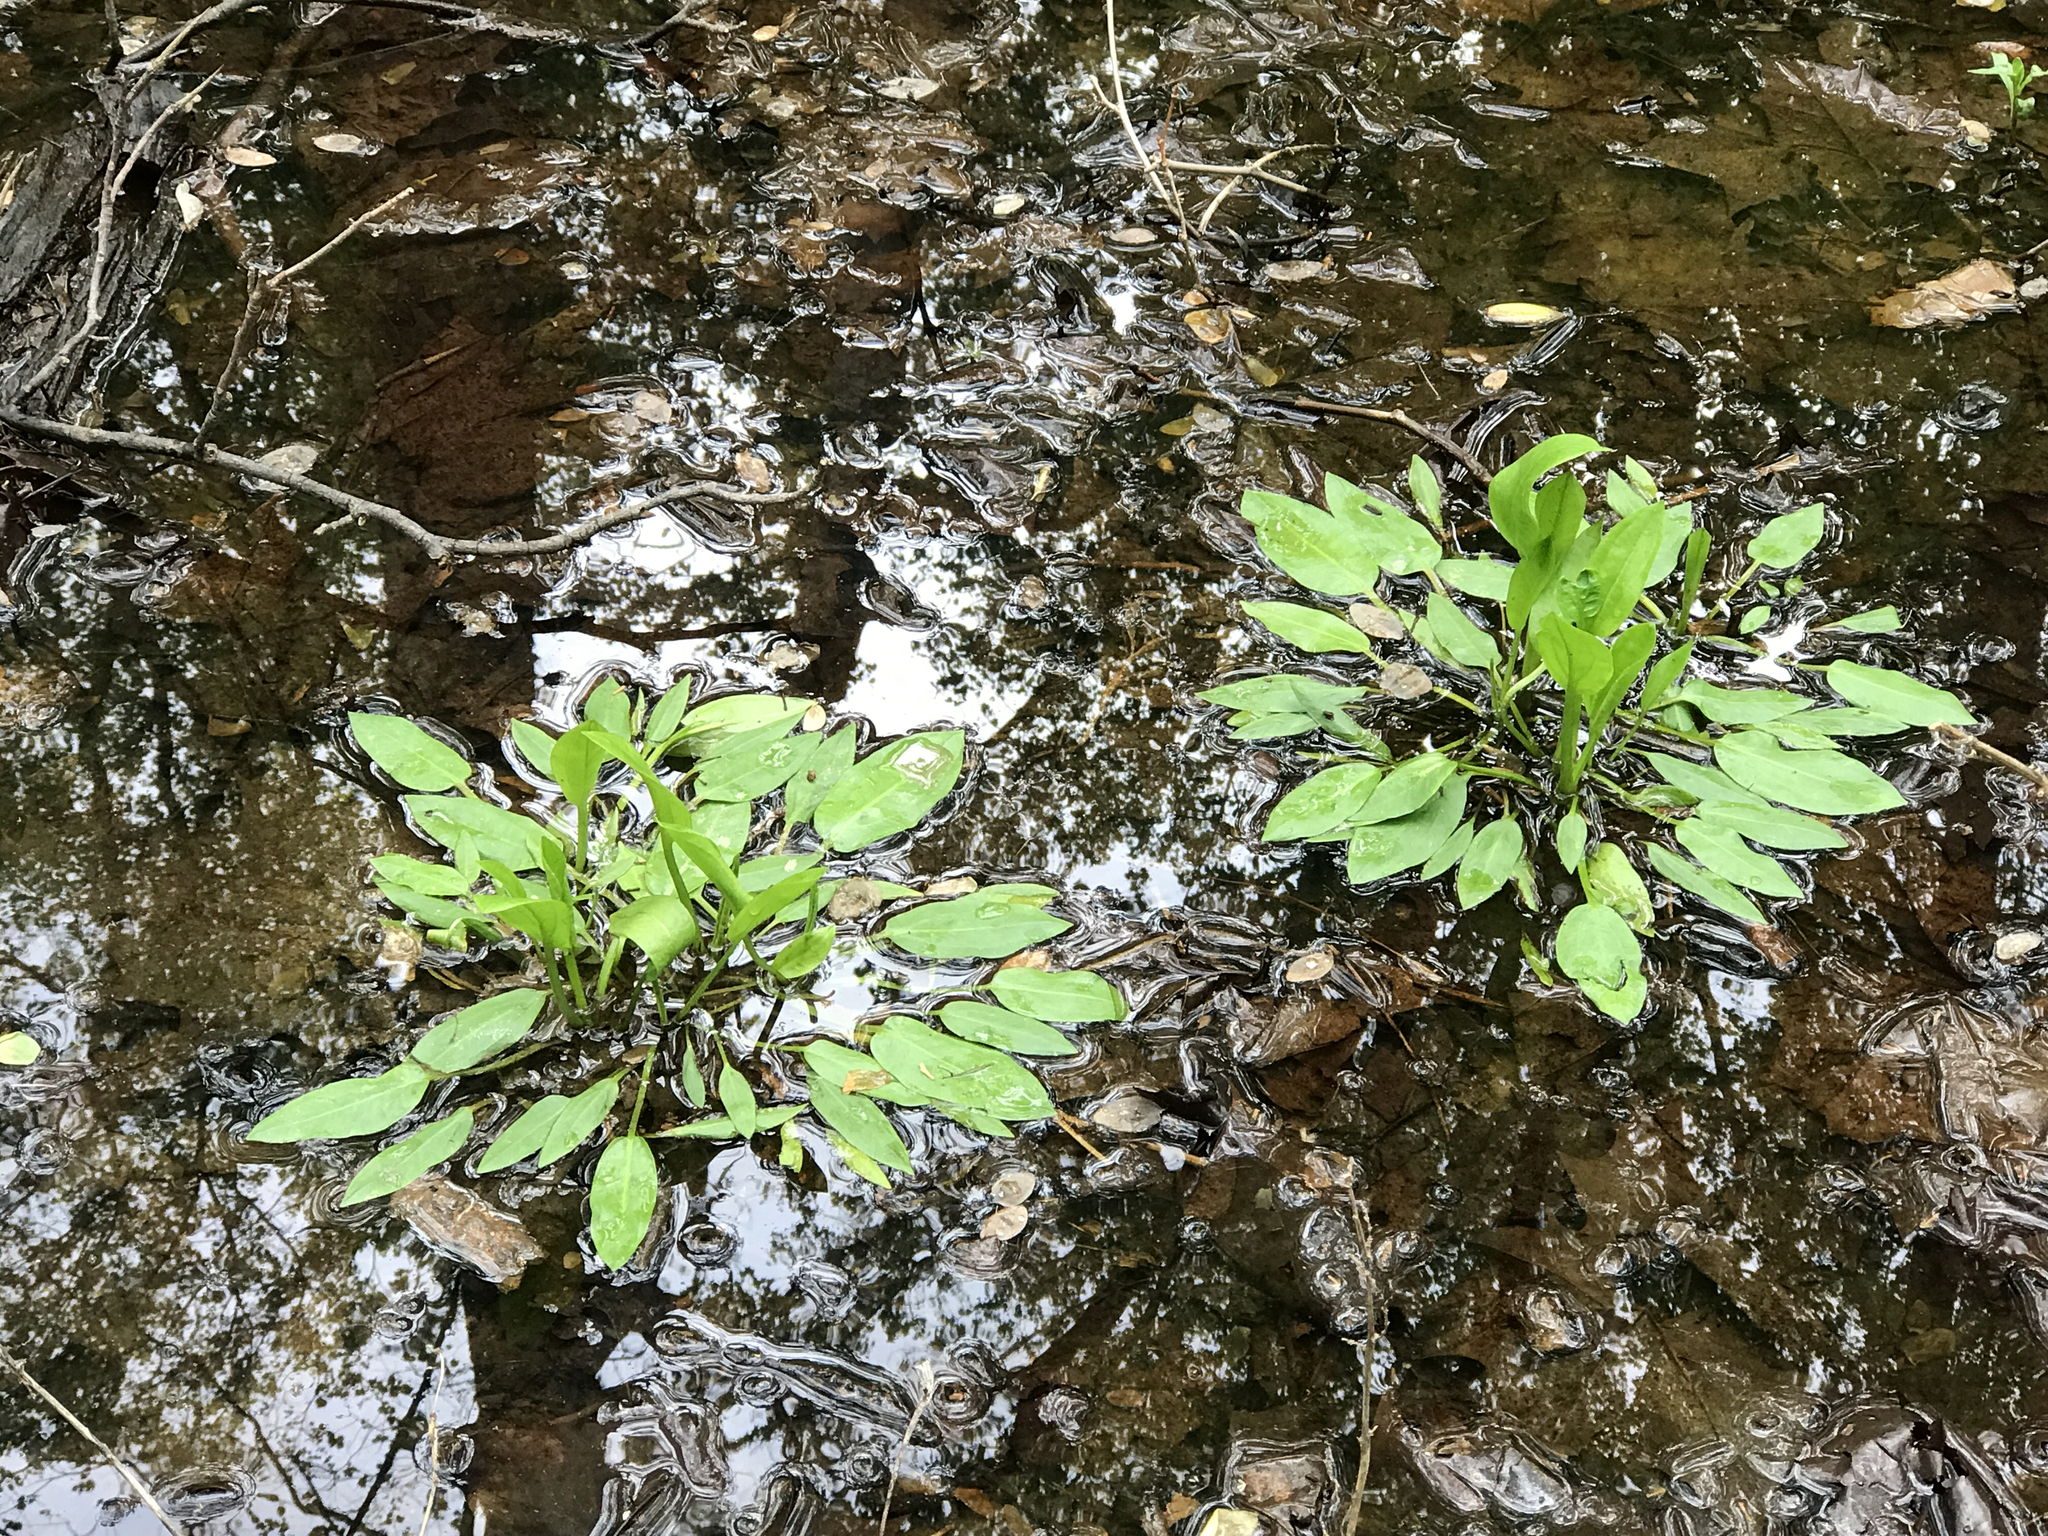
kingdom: Plantae
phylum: Tracheophyta
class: Liliopsida
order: Alismatales
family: Alismataceae
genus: Alisma
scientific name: Alisma subcordatum
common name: Southern water-plantain
